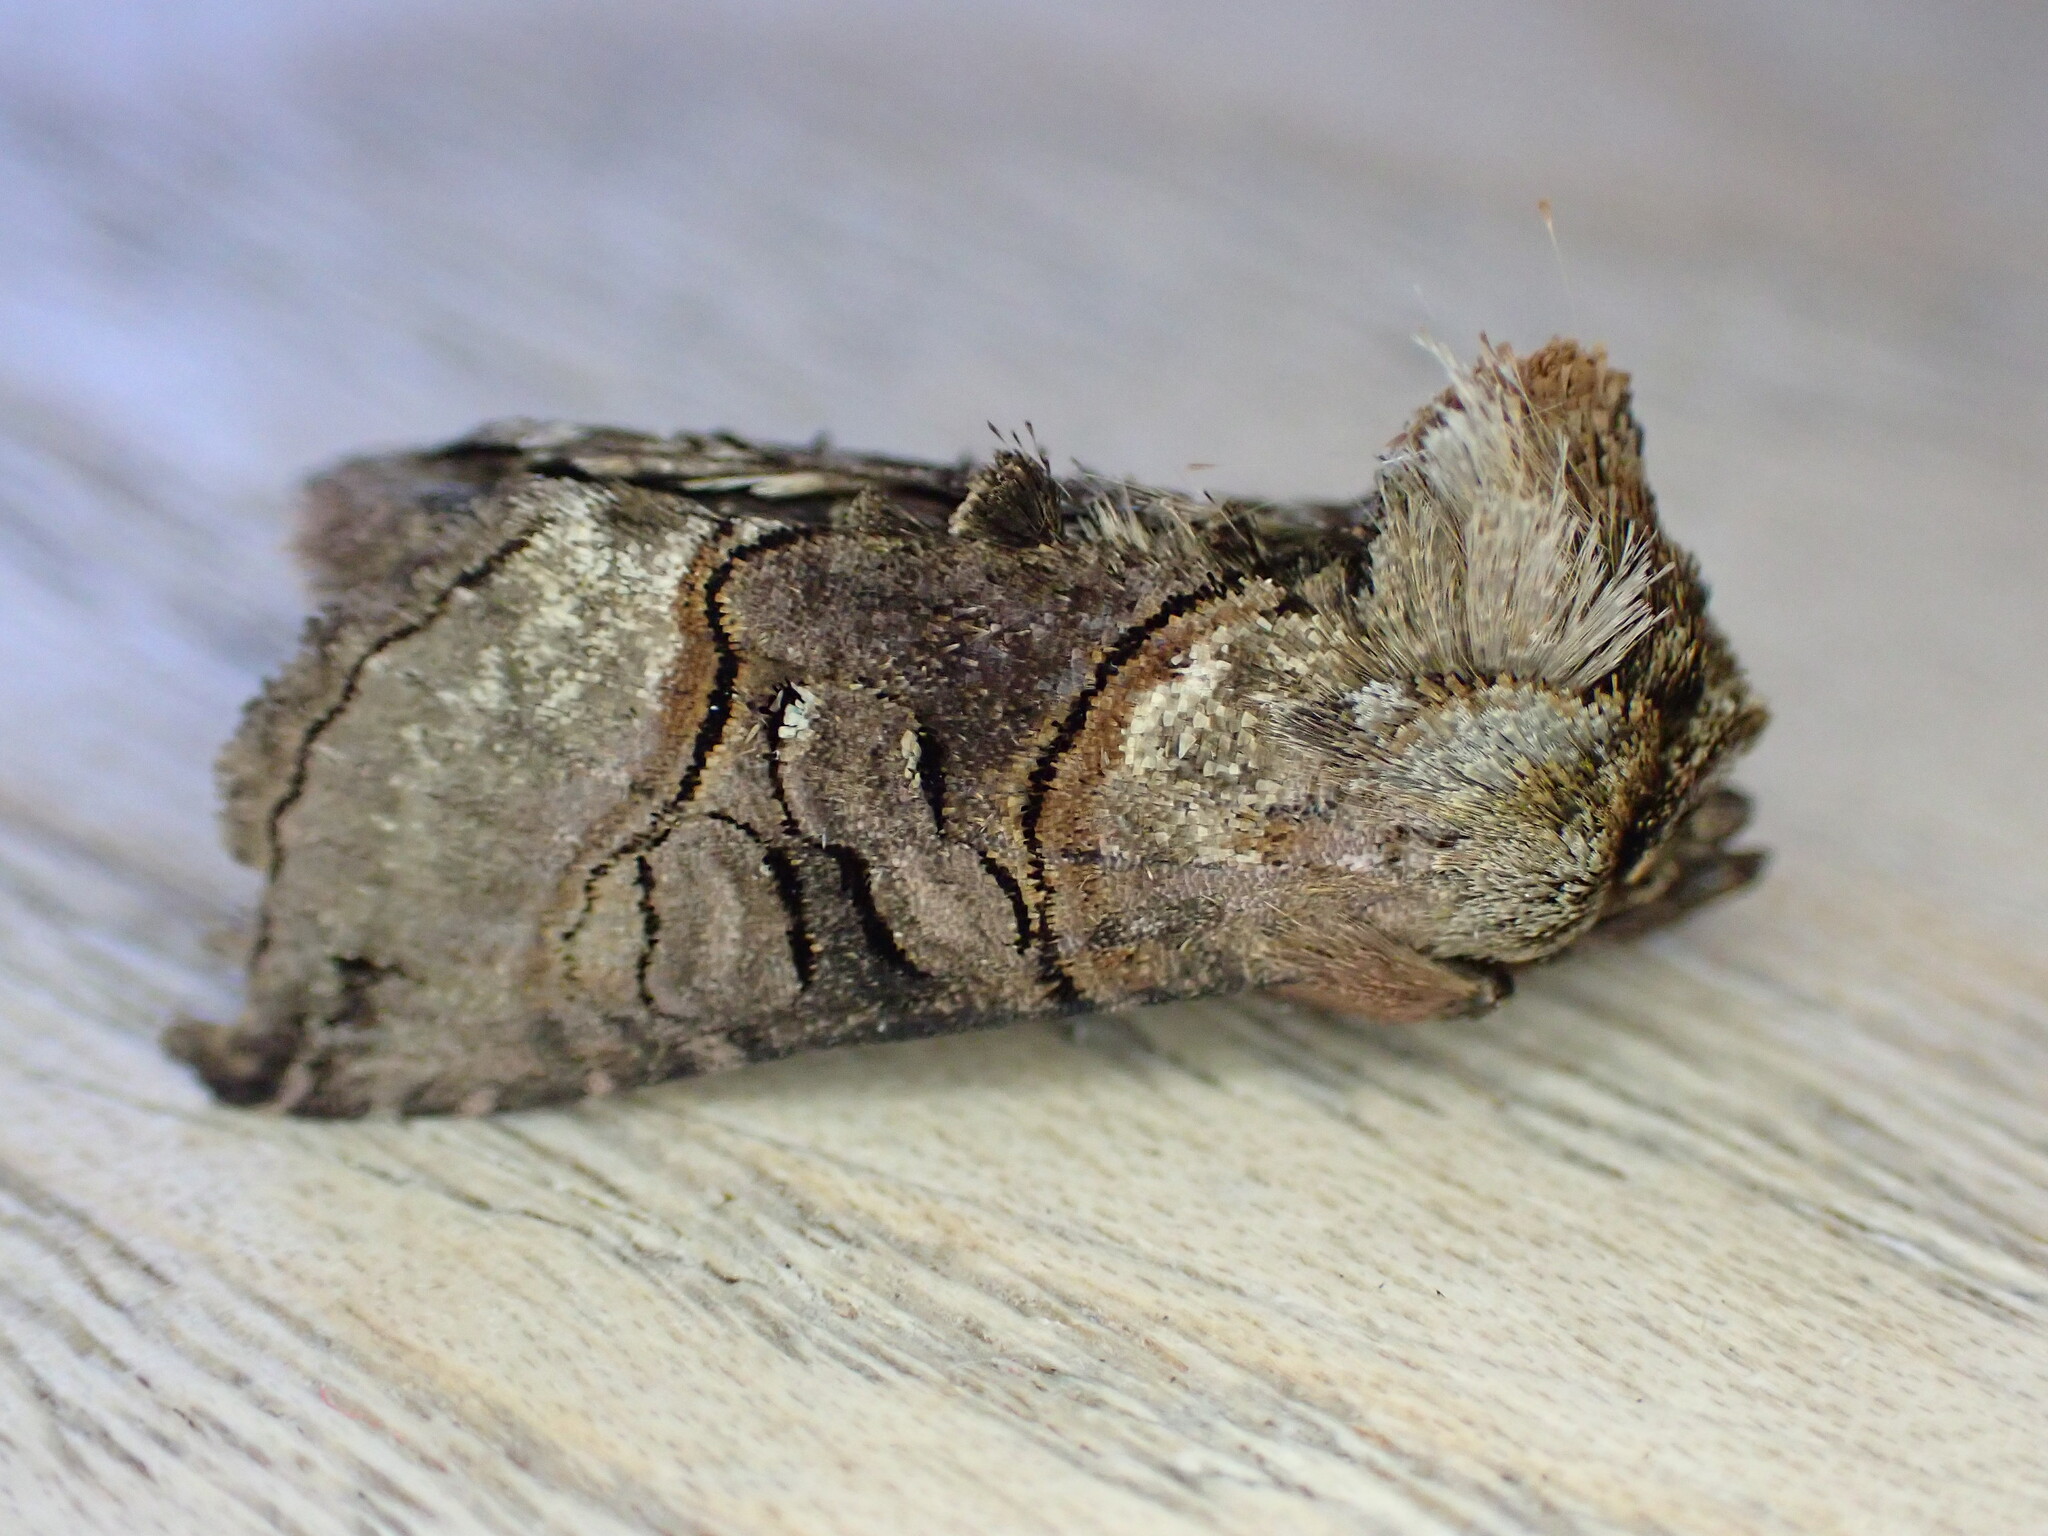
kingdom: Animalia
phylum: Arthropoda
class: Insecta
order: Lepidoptera
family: Noctuidae
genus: Abrostola
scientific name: Abrostola tripartita
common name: Spectacle
